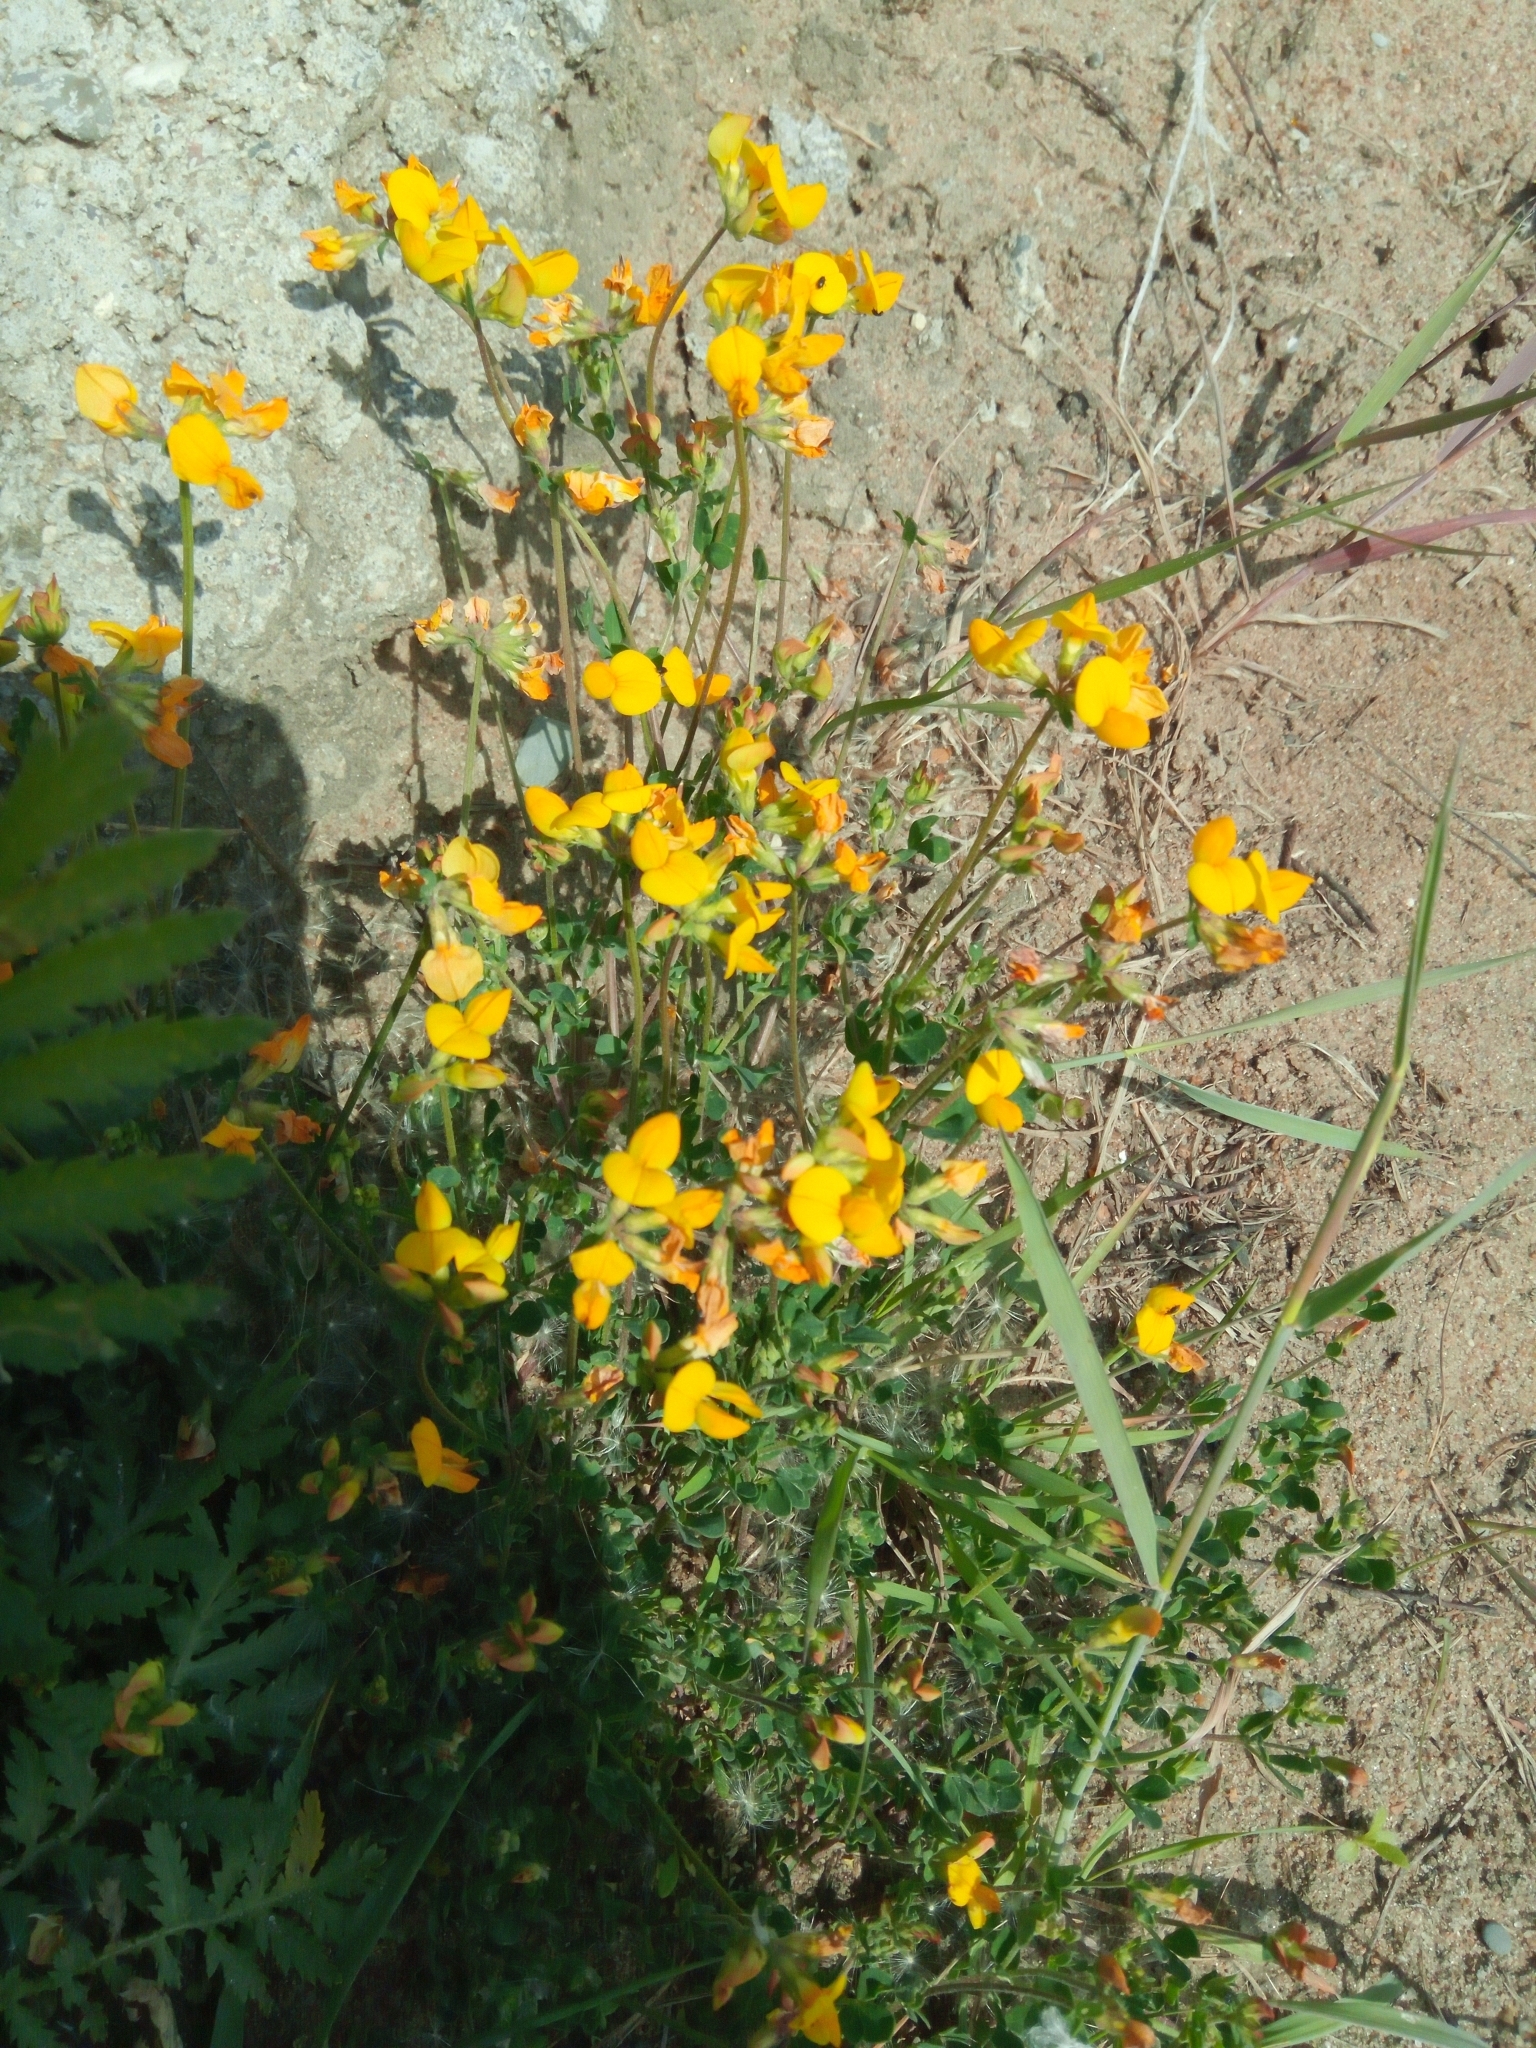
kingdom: Plantae
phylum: Tracheophyta
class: Magnoliopsida
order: Fabales
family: Fabaceae
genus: Lotus
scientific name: Lotus corniculatus
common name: Common bird's-foot-trefoil
